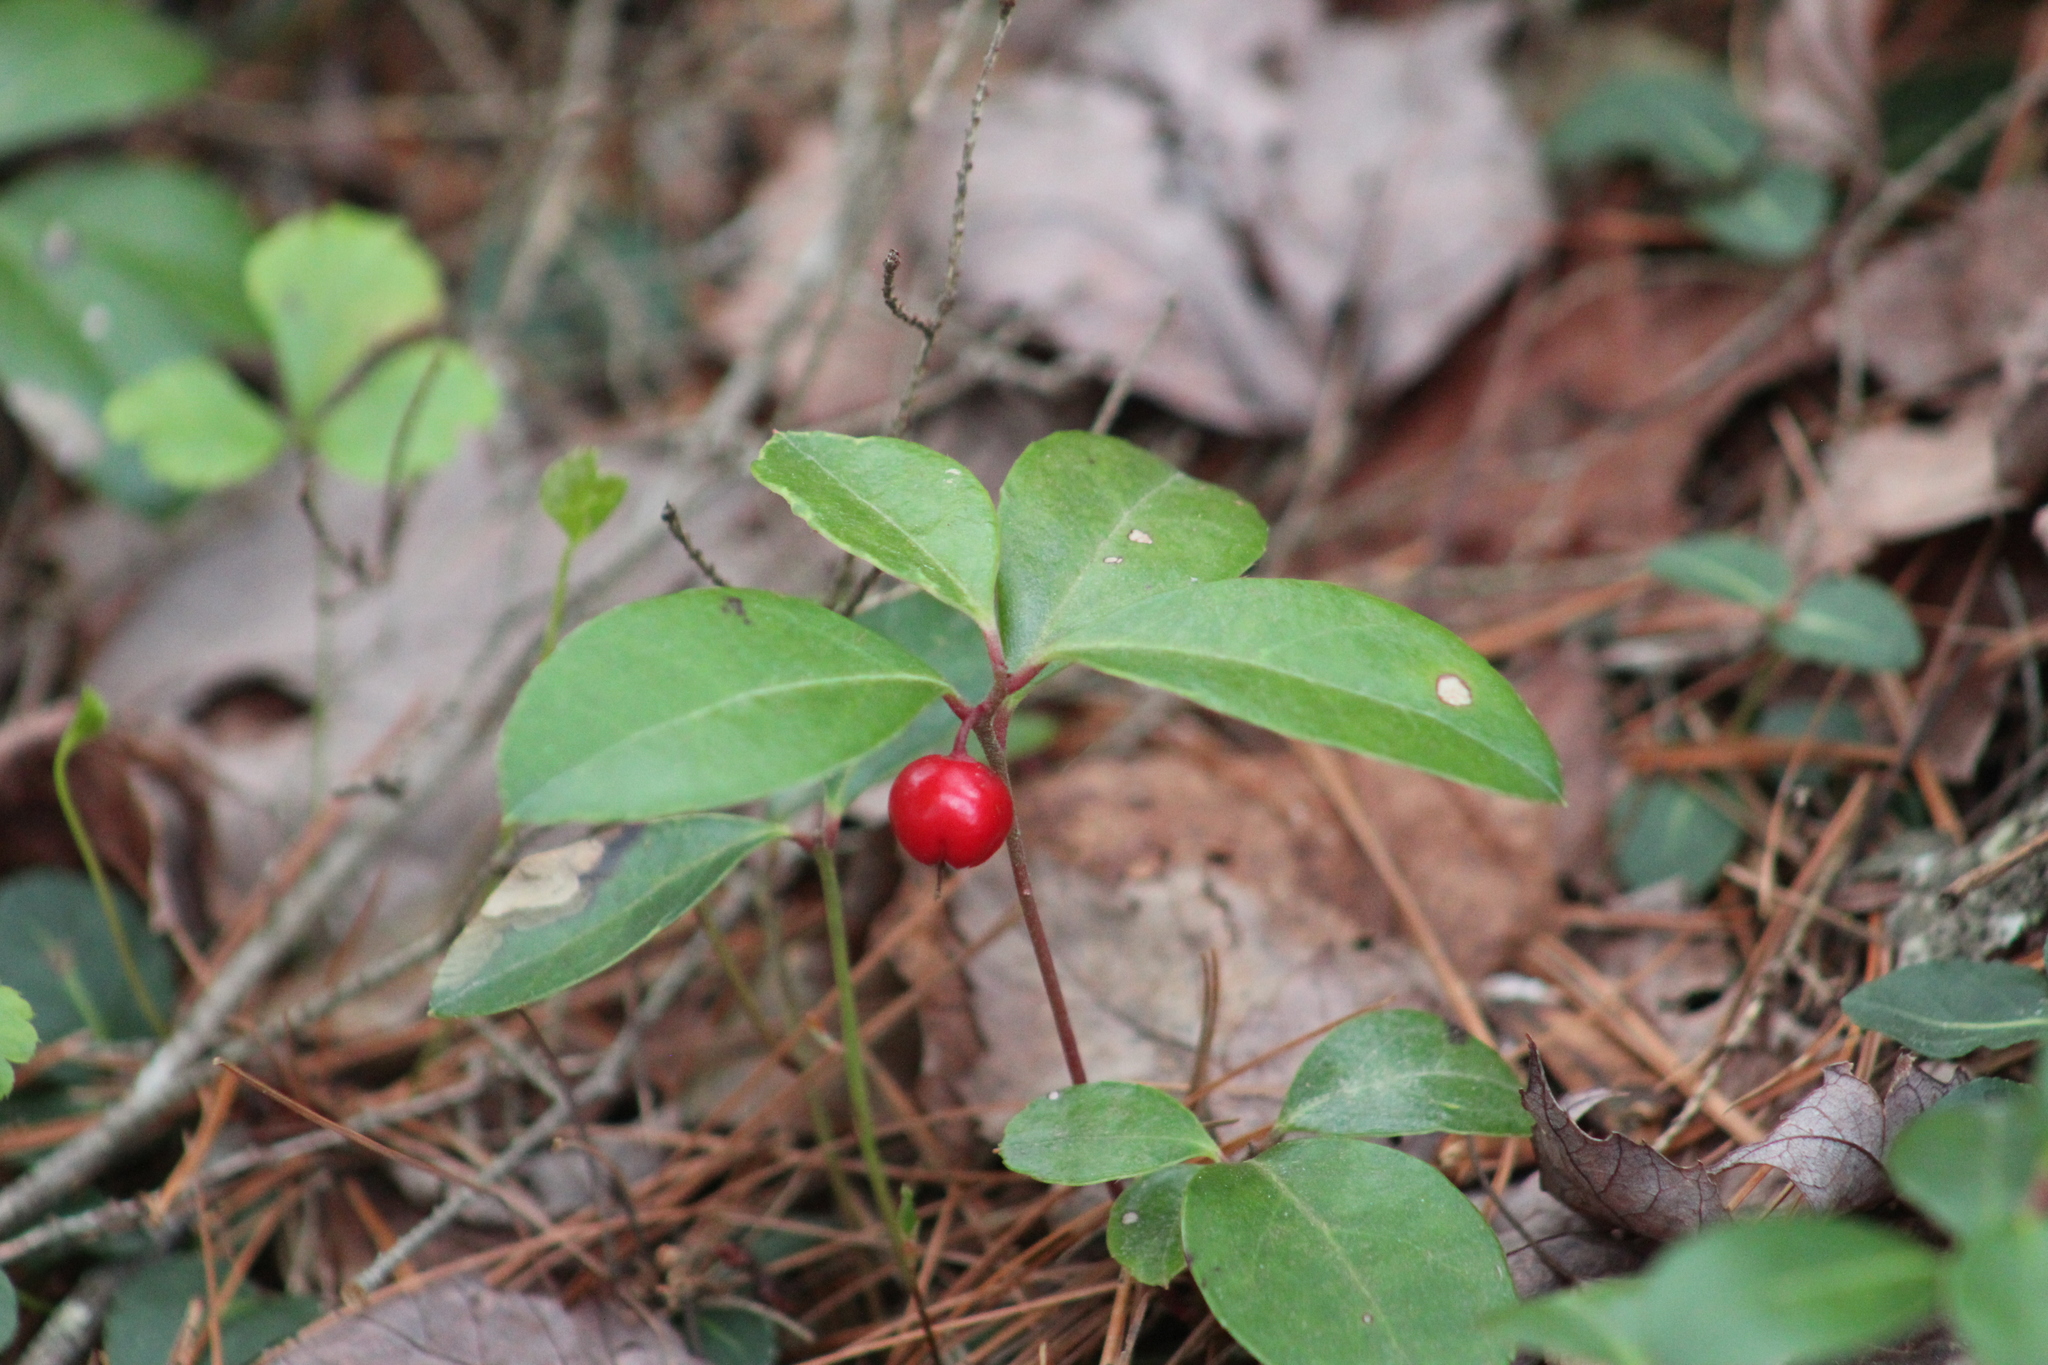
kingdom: Plantae
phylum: Tracheophyta
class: Magnoliopsida
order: Ericales
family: Ericaceae
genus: Gaultheria
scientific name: Gaultheria procumbens
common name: Checkerberry
